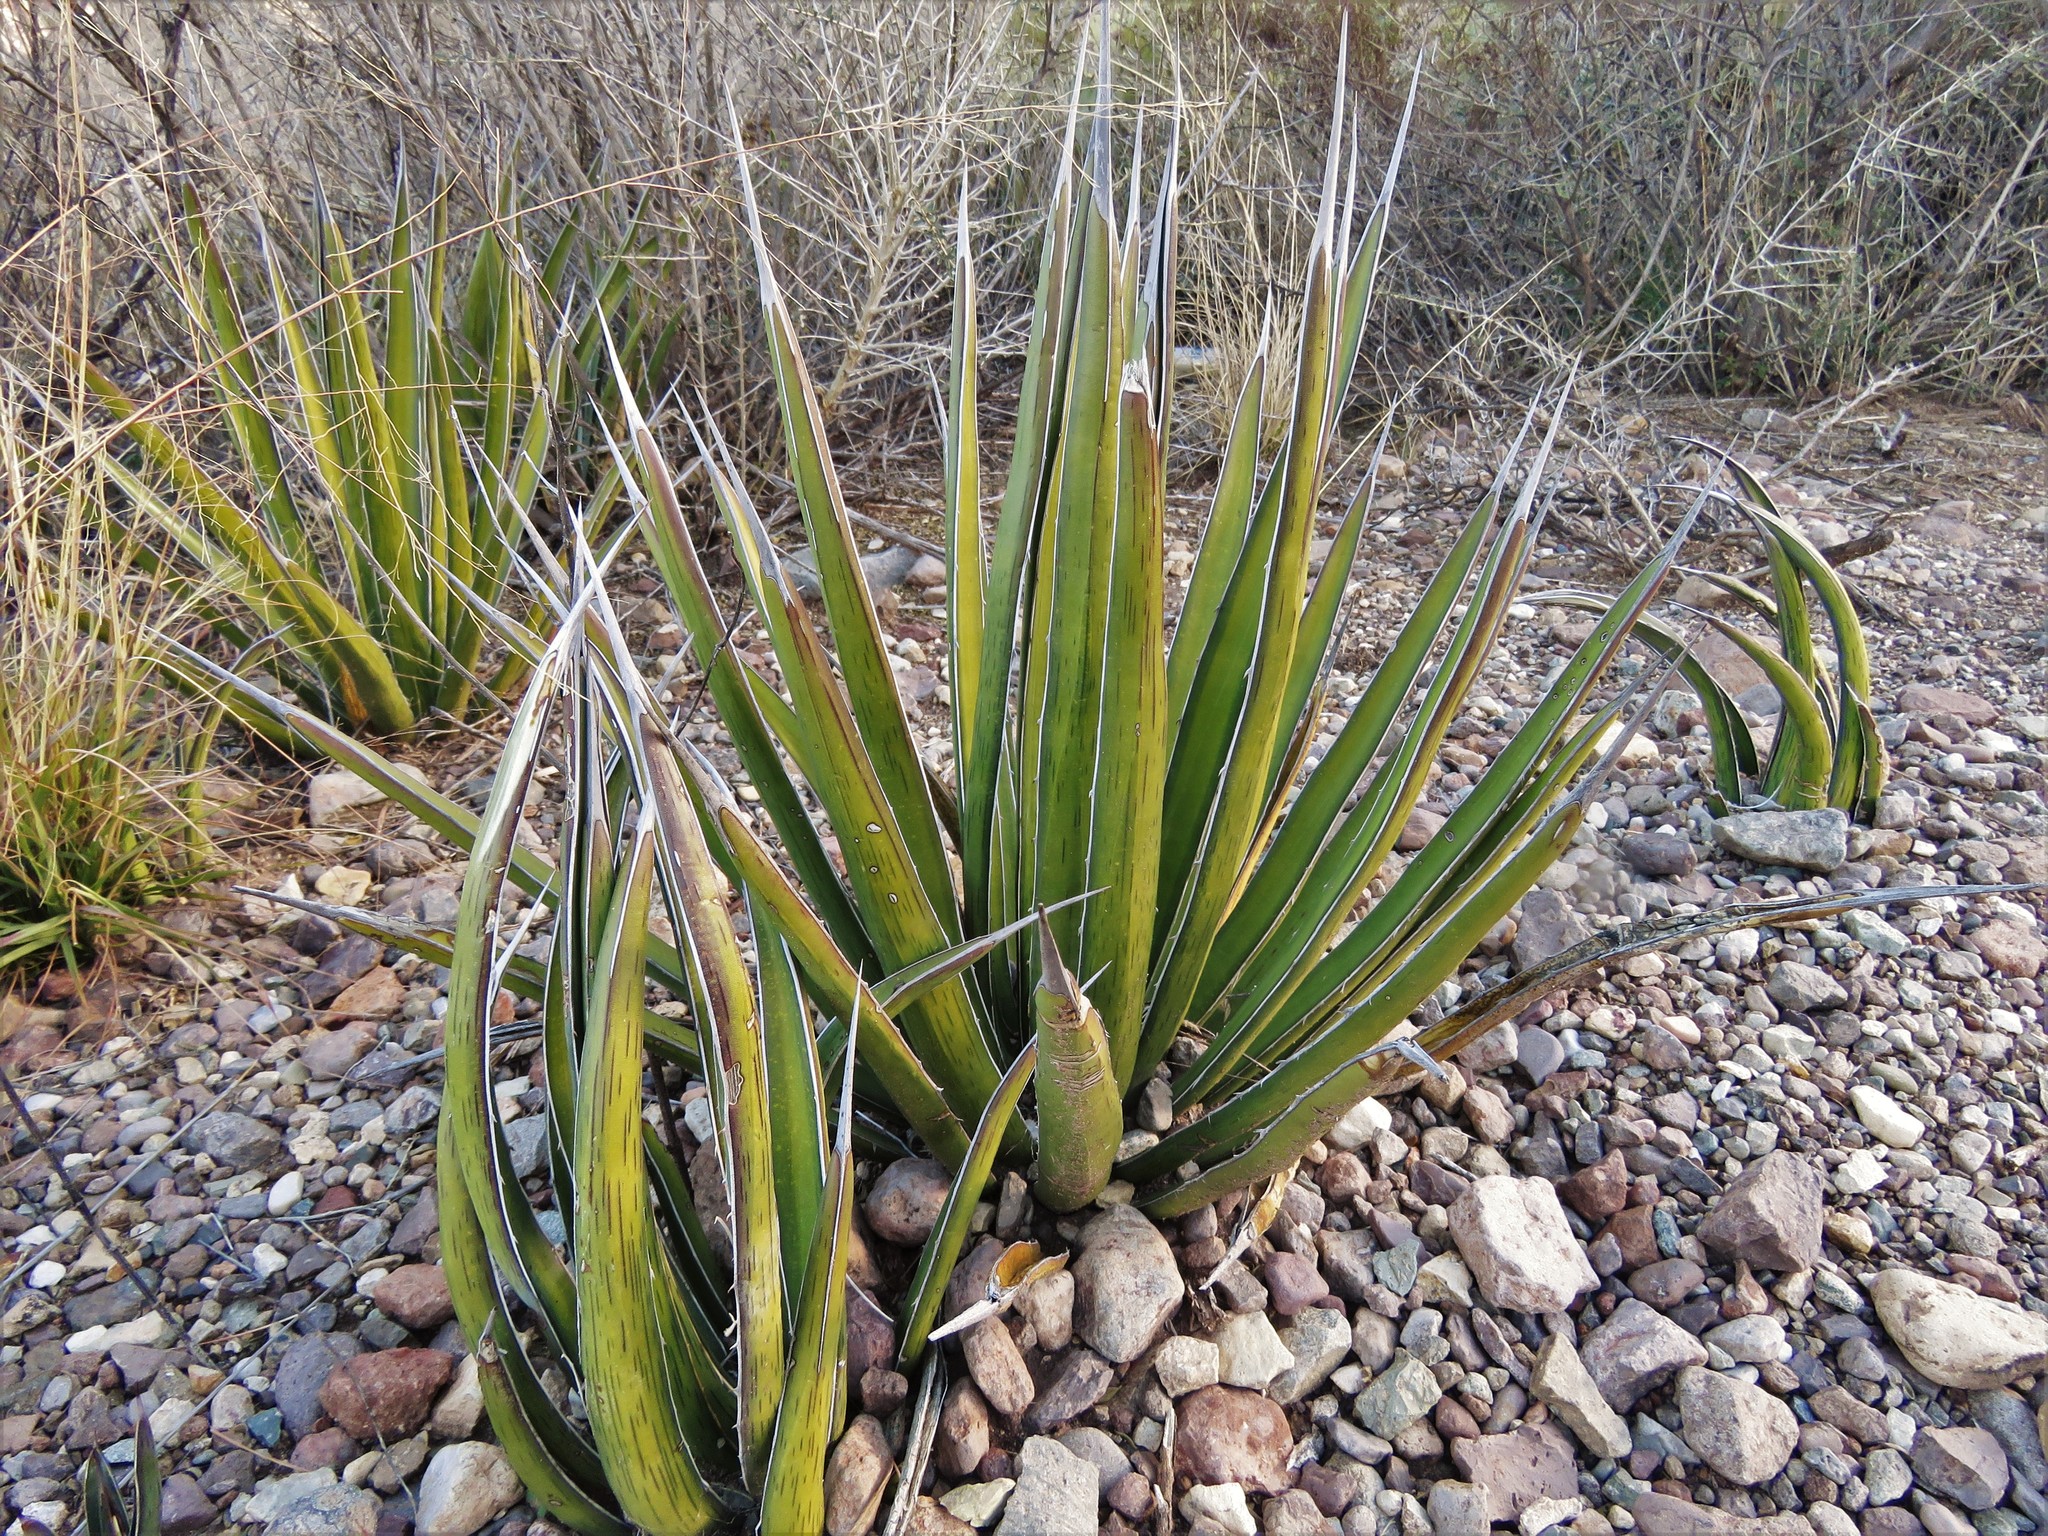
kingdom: Plantae
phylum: Tracheophyta
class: Liliopsida
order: Asparagales
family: Asparagaceae
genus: Agave
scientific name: Agave lechuguilla
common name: Lecheguilla agave
